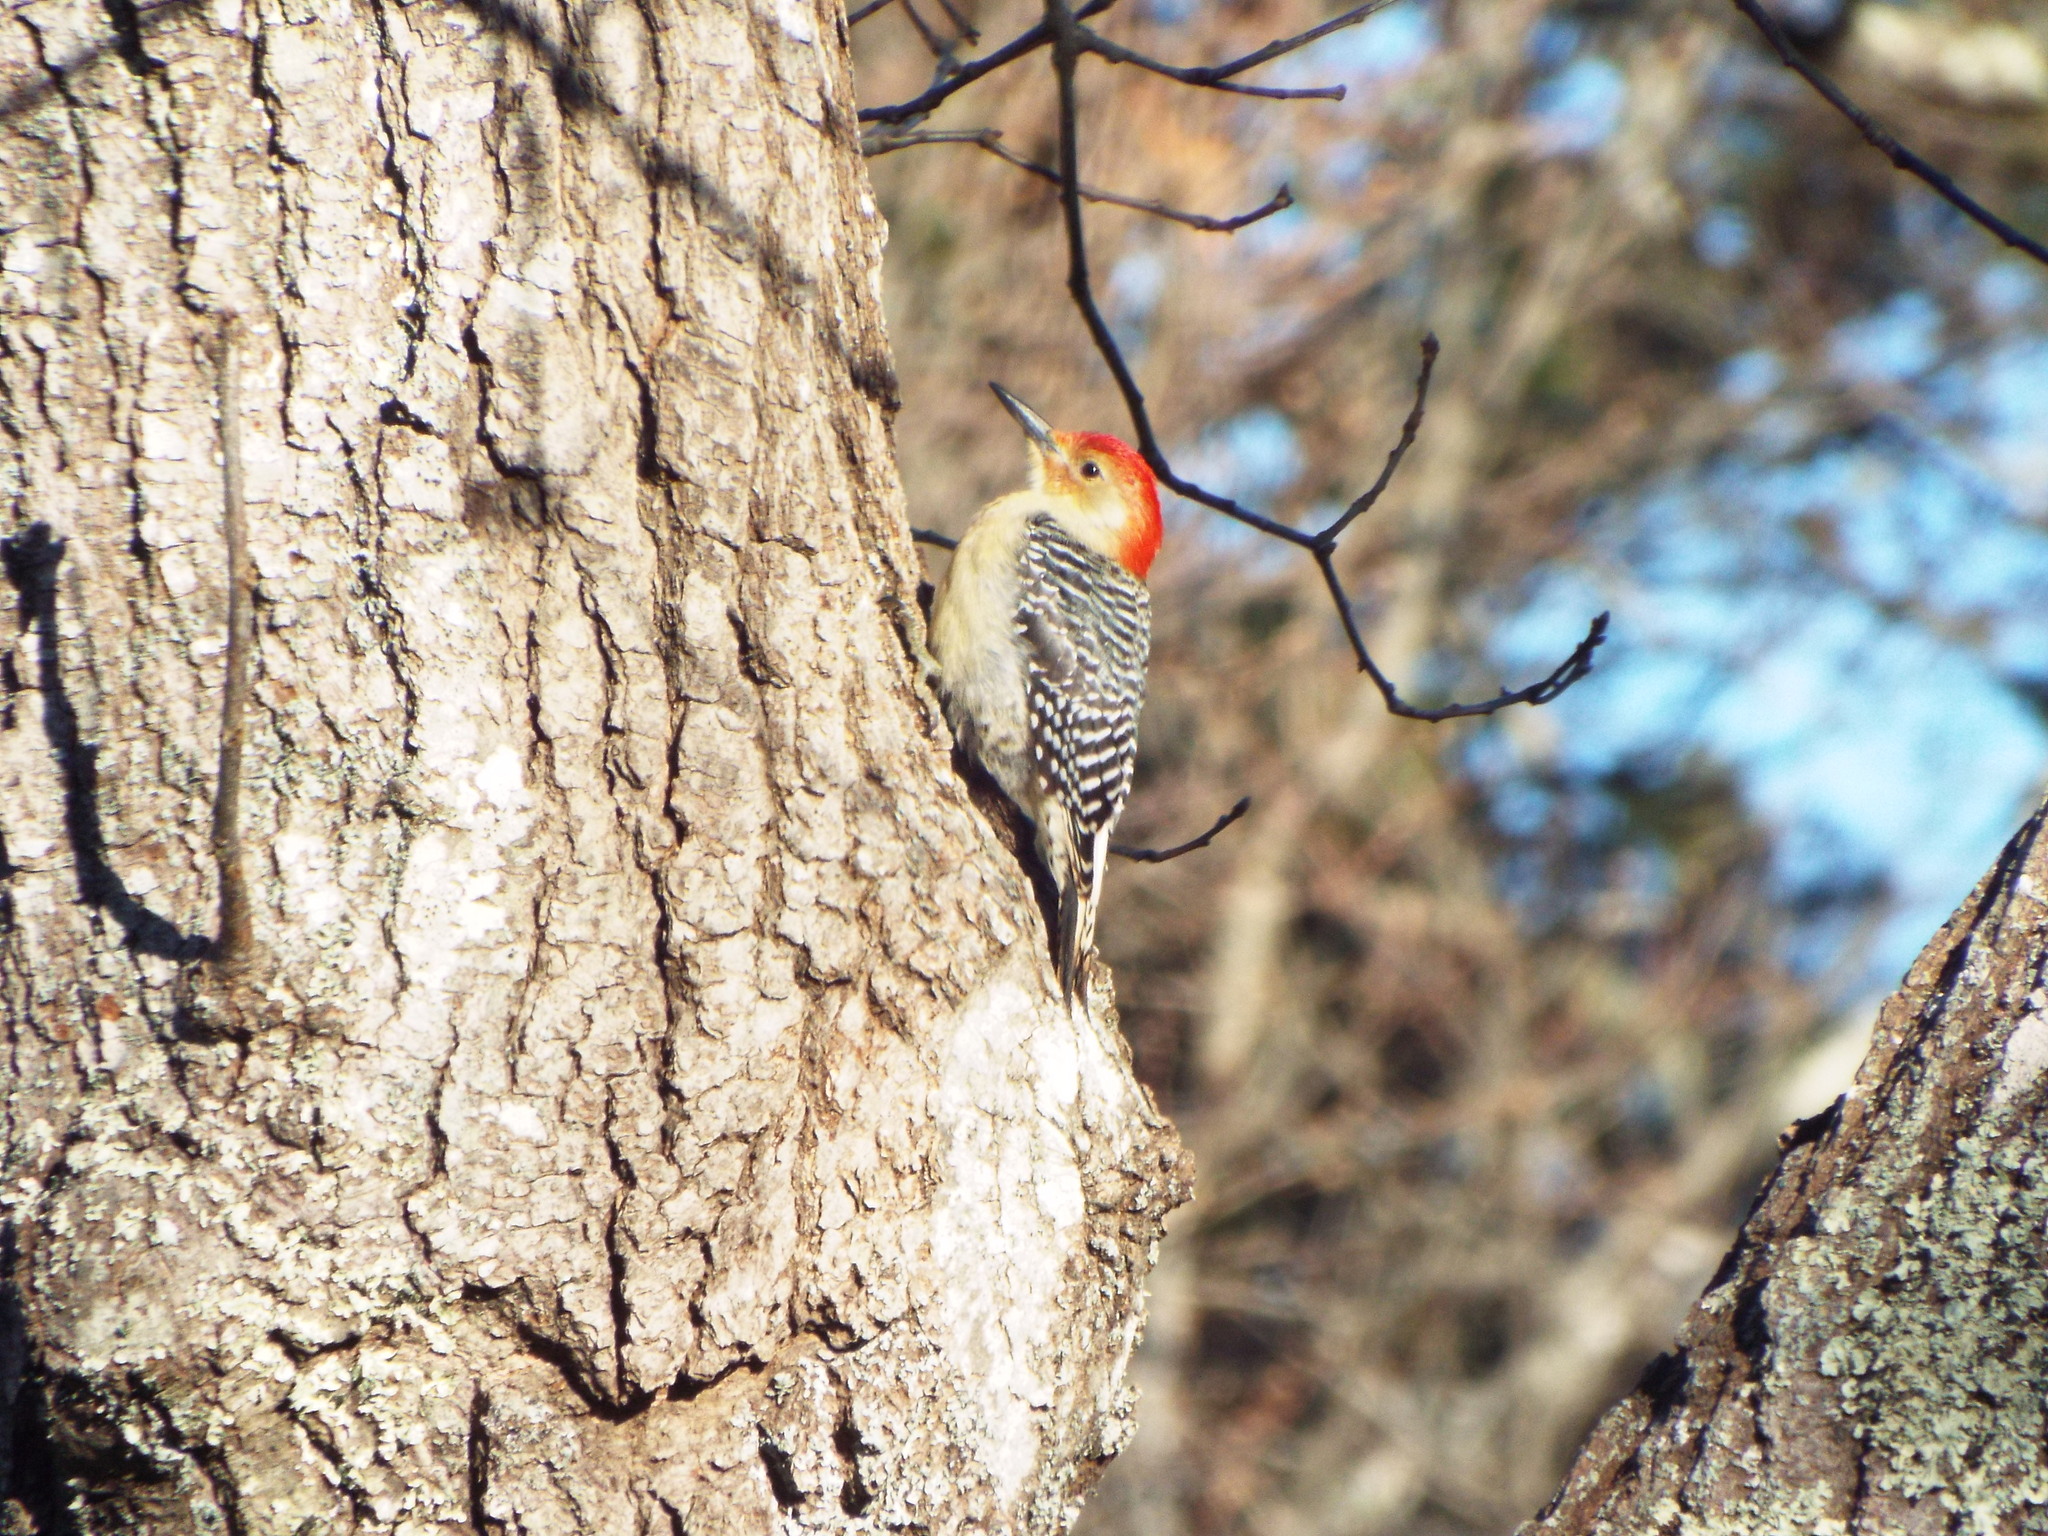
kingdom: Animalia
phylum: Chordata
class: Aves
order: Piciformes
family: Picidae
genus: Melanerpes
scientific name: Melanerpes carolinus
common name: Red-bellied woodpecker
